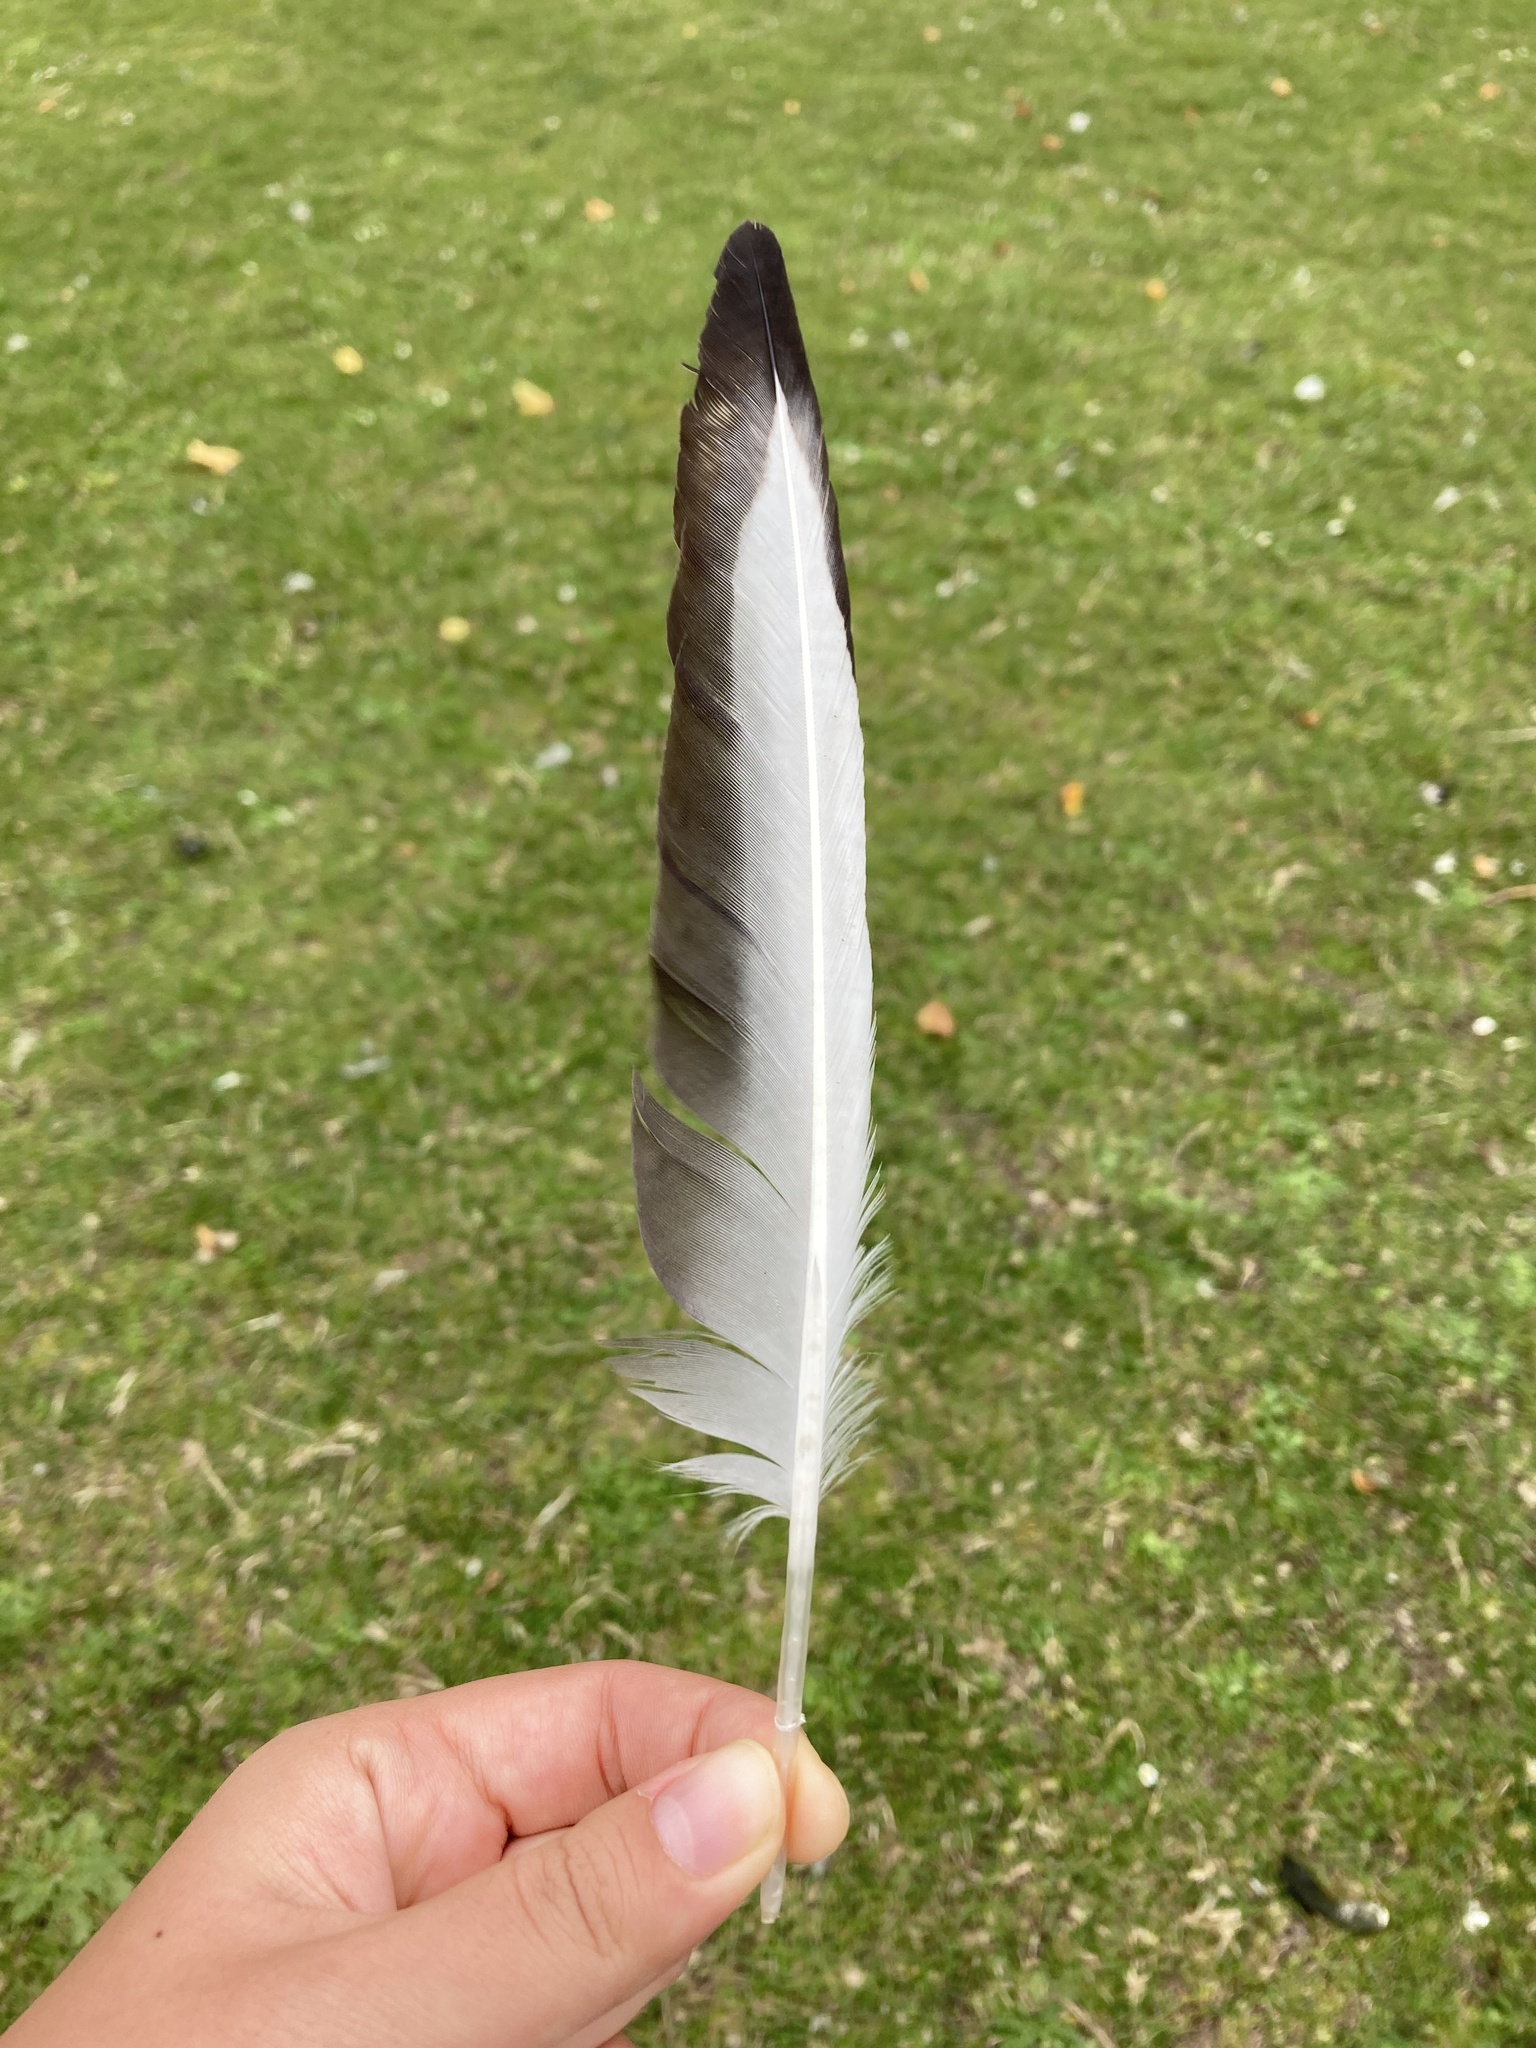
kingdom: Animalia
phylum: Chordata
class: Aves
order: Charadriiformes
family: Laridae
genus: Chroicocephalus
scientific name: Chroicocephalus ridibundus
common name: Black-headed gull
